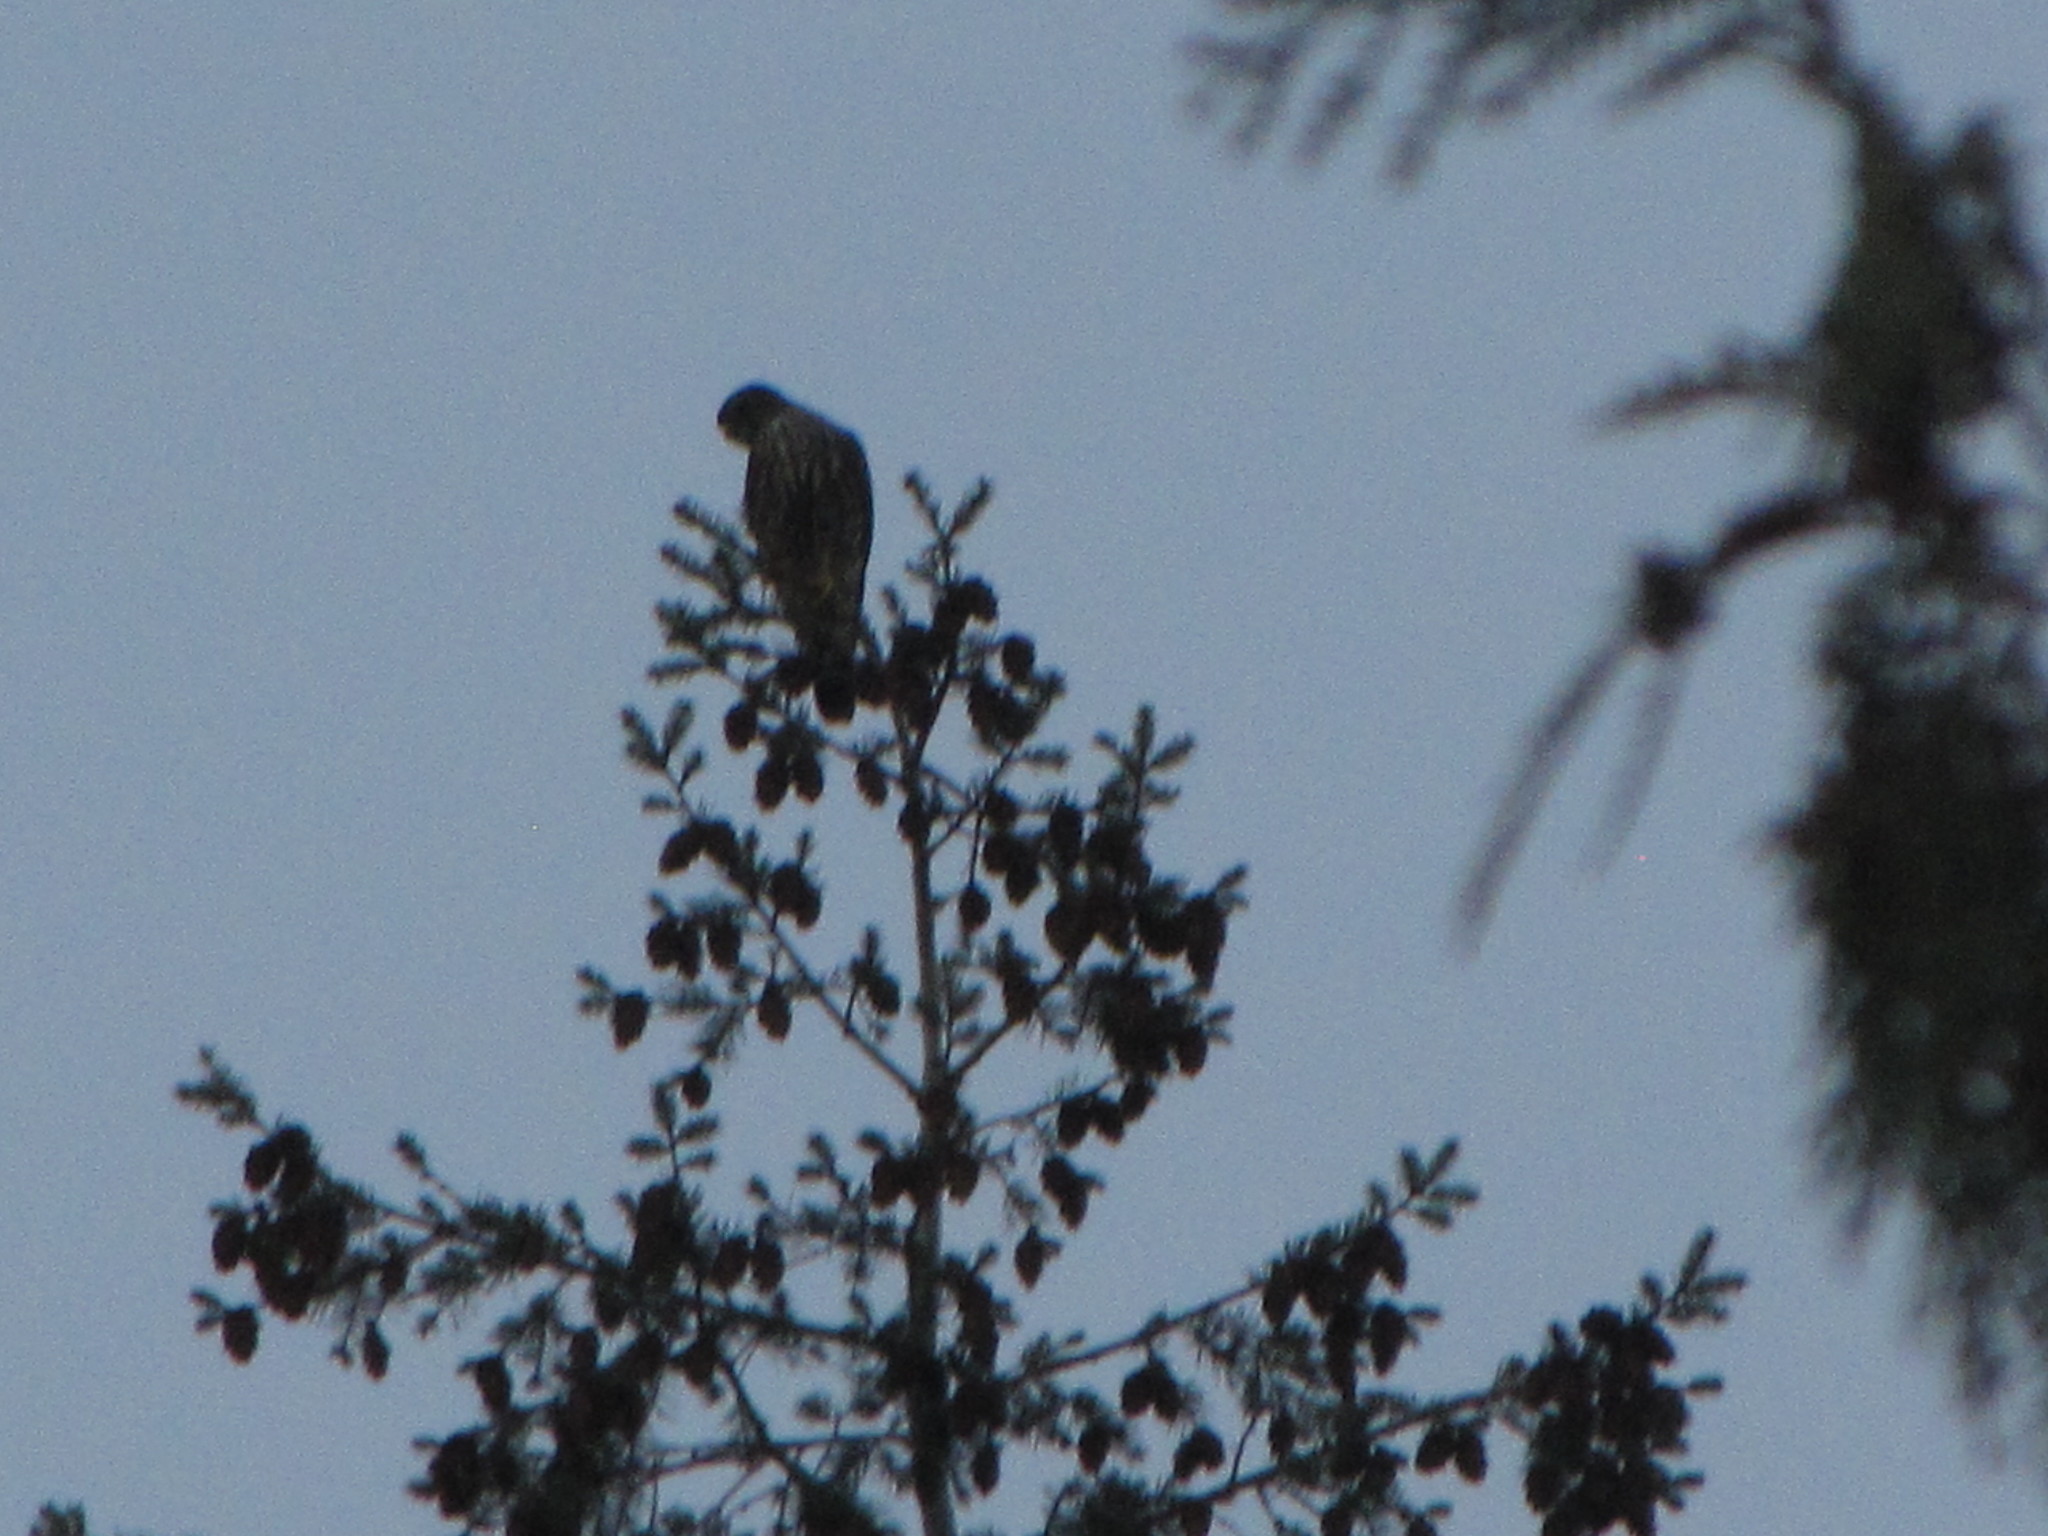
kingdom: Animalia
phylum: Chordata
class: Aves
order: Falconiformes
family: Falconidae
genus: Falco
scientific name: Falco columbarius
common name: Merlin
